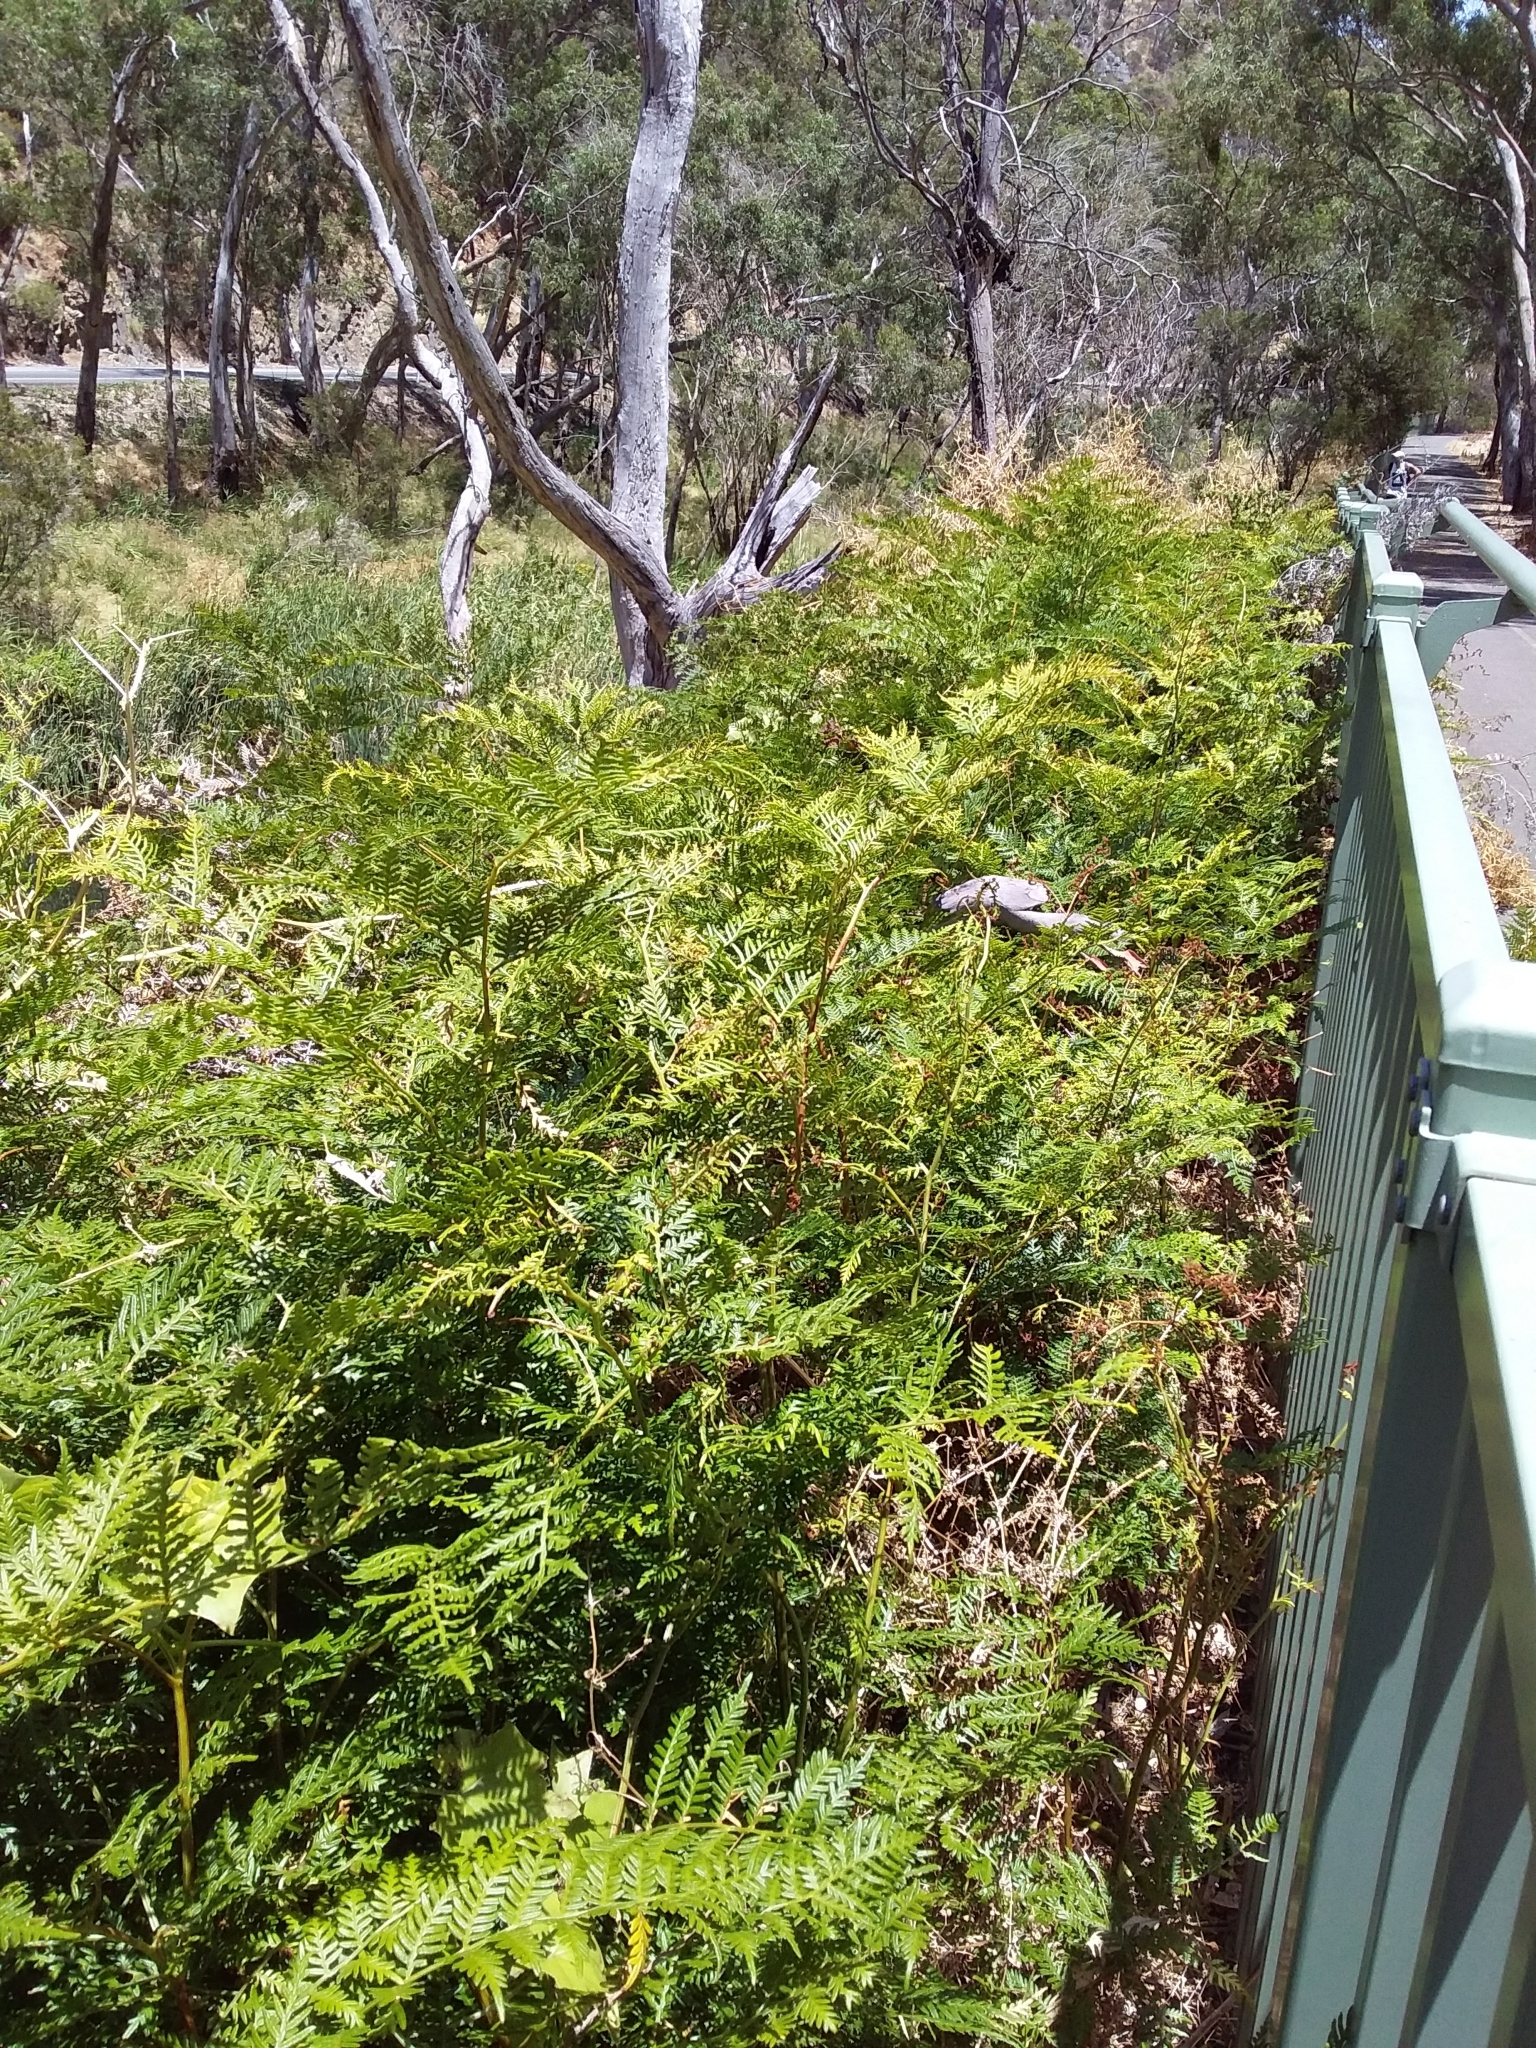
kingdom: Plantae
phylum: Tracheophyta
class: Polypodiopsida
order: Polypodiales
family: Dennstaedtiaceae
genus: Pteridium
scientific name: Pteridium esculentum
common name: Bracken fern
